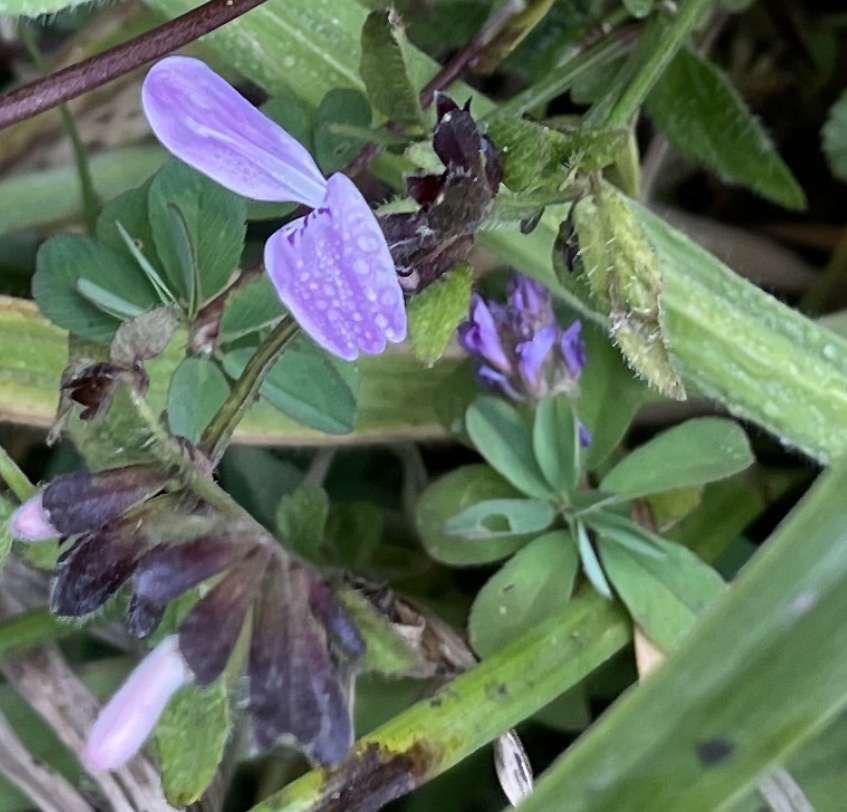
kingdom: Plantae
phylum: Tracheophyta
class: Magnoliopsida
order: Lamiales
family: Acanthaceae
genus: Hypoestes
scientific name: Hypoestes triflora
